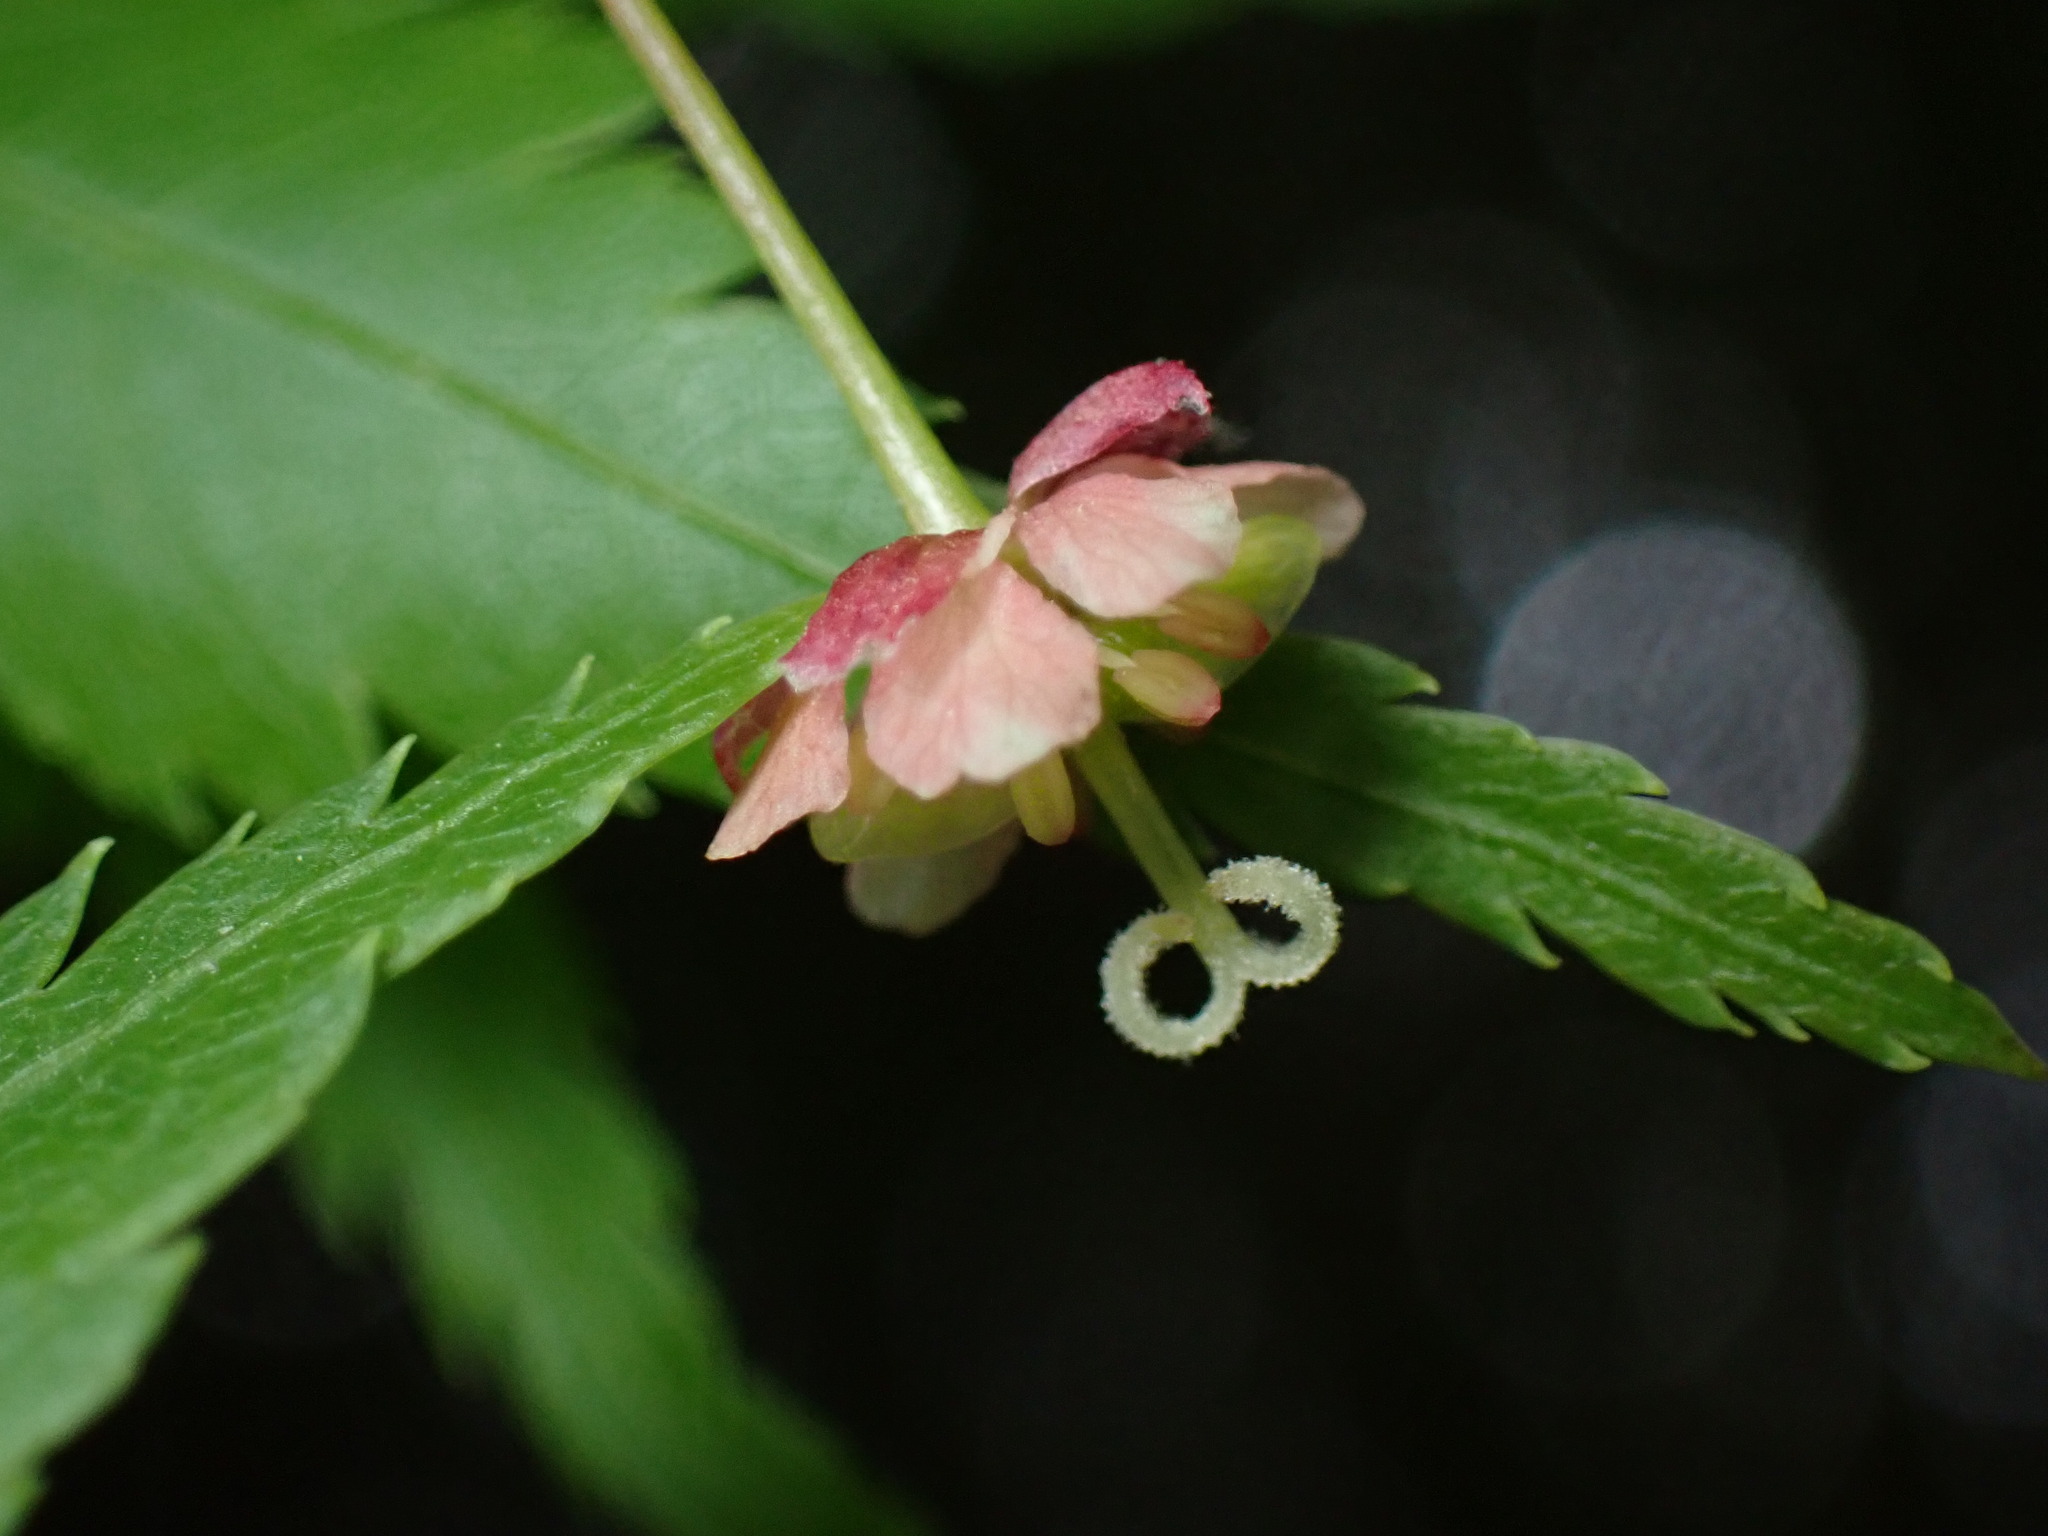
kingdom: Plantae
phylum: Tracheophyta
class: Magnoliopsida
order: Sapindales
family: Sapindaceae
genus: Acer
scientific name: Acer palmatum
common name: Japanese maple
